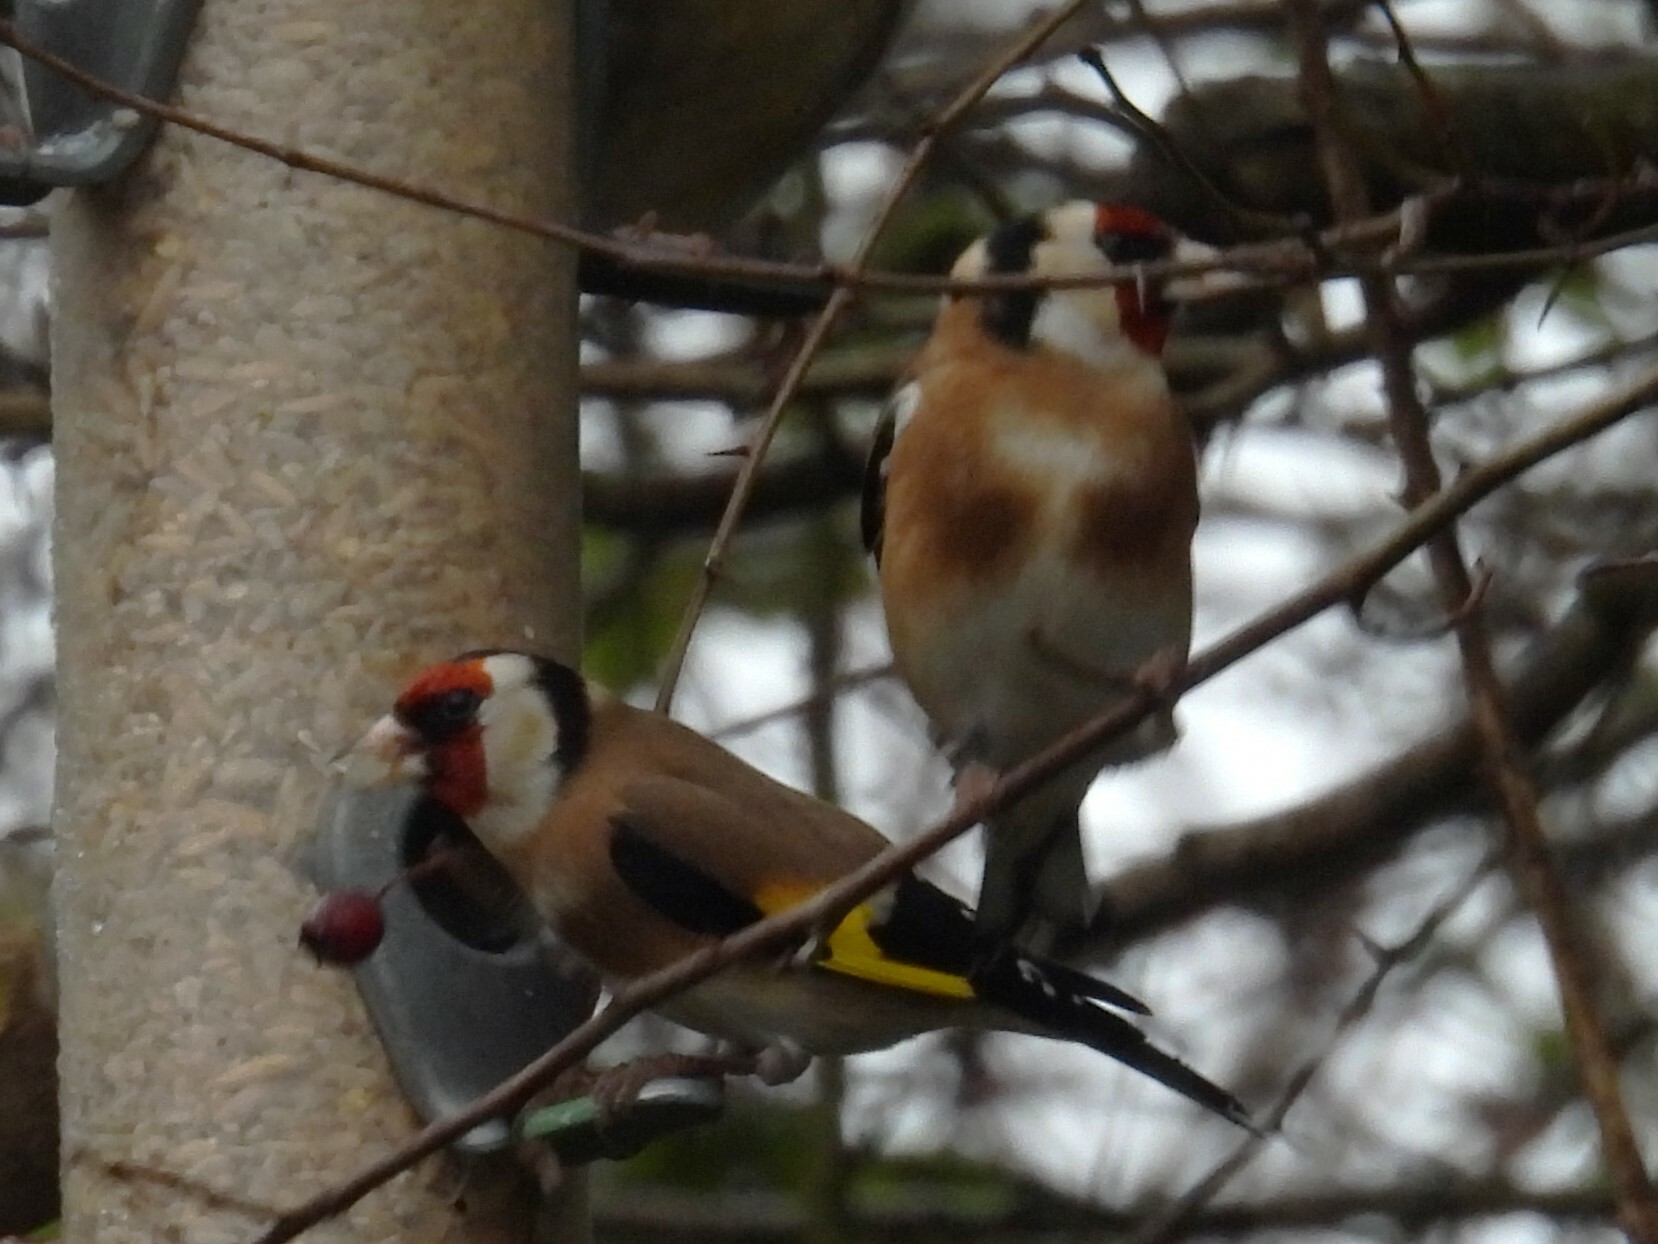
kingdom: Animalia
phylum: Chordata
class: Aves
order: Passeriformes
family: Fringillidae
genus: Carduelis
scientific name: Carduelis carduelis
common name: European goldfinch
